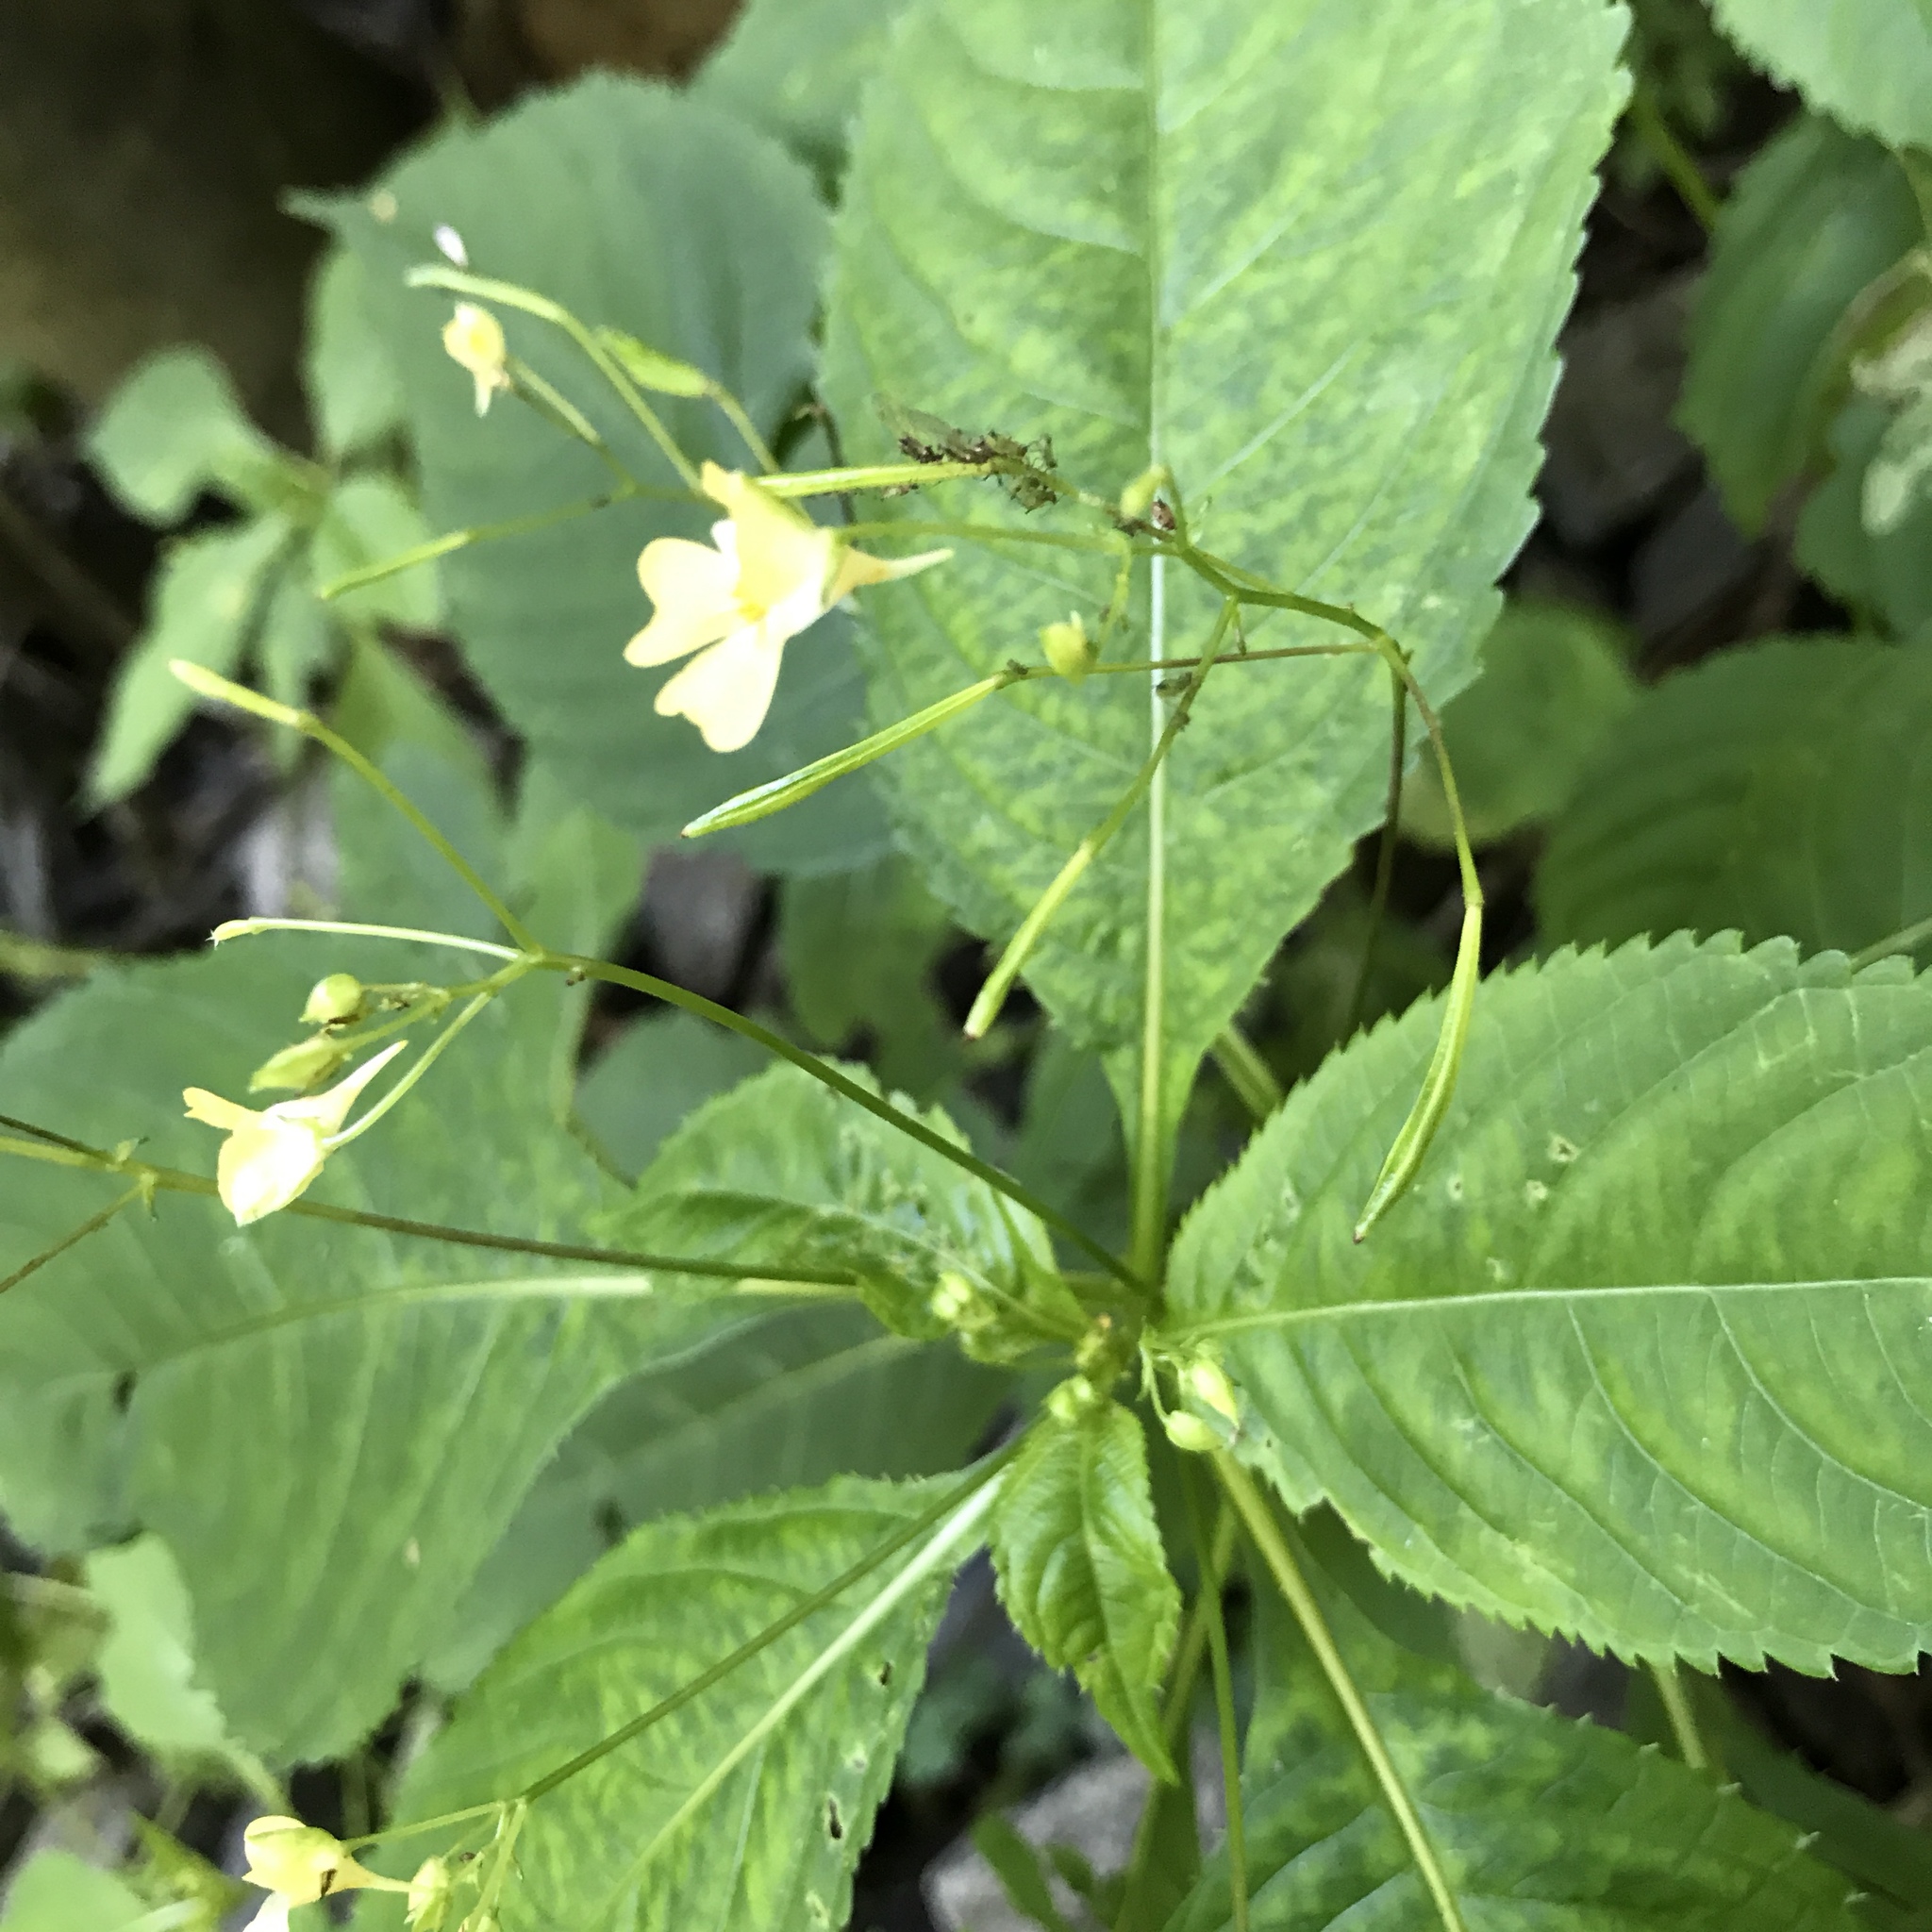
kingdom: Plantae
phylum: Tracheophyta
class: Magnoliopsida
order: Ericales
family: Balsaminaceae
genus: Impatiens
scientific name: Impatiens parviflora
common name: Small balsam
